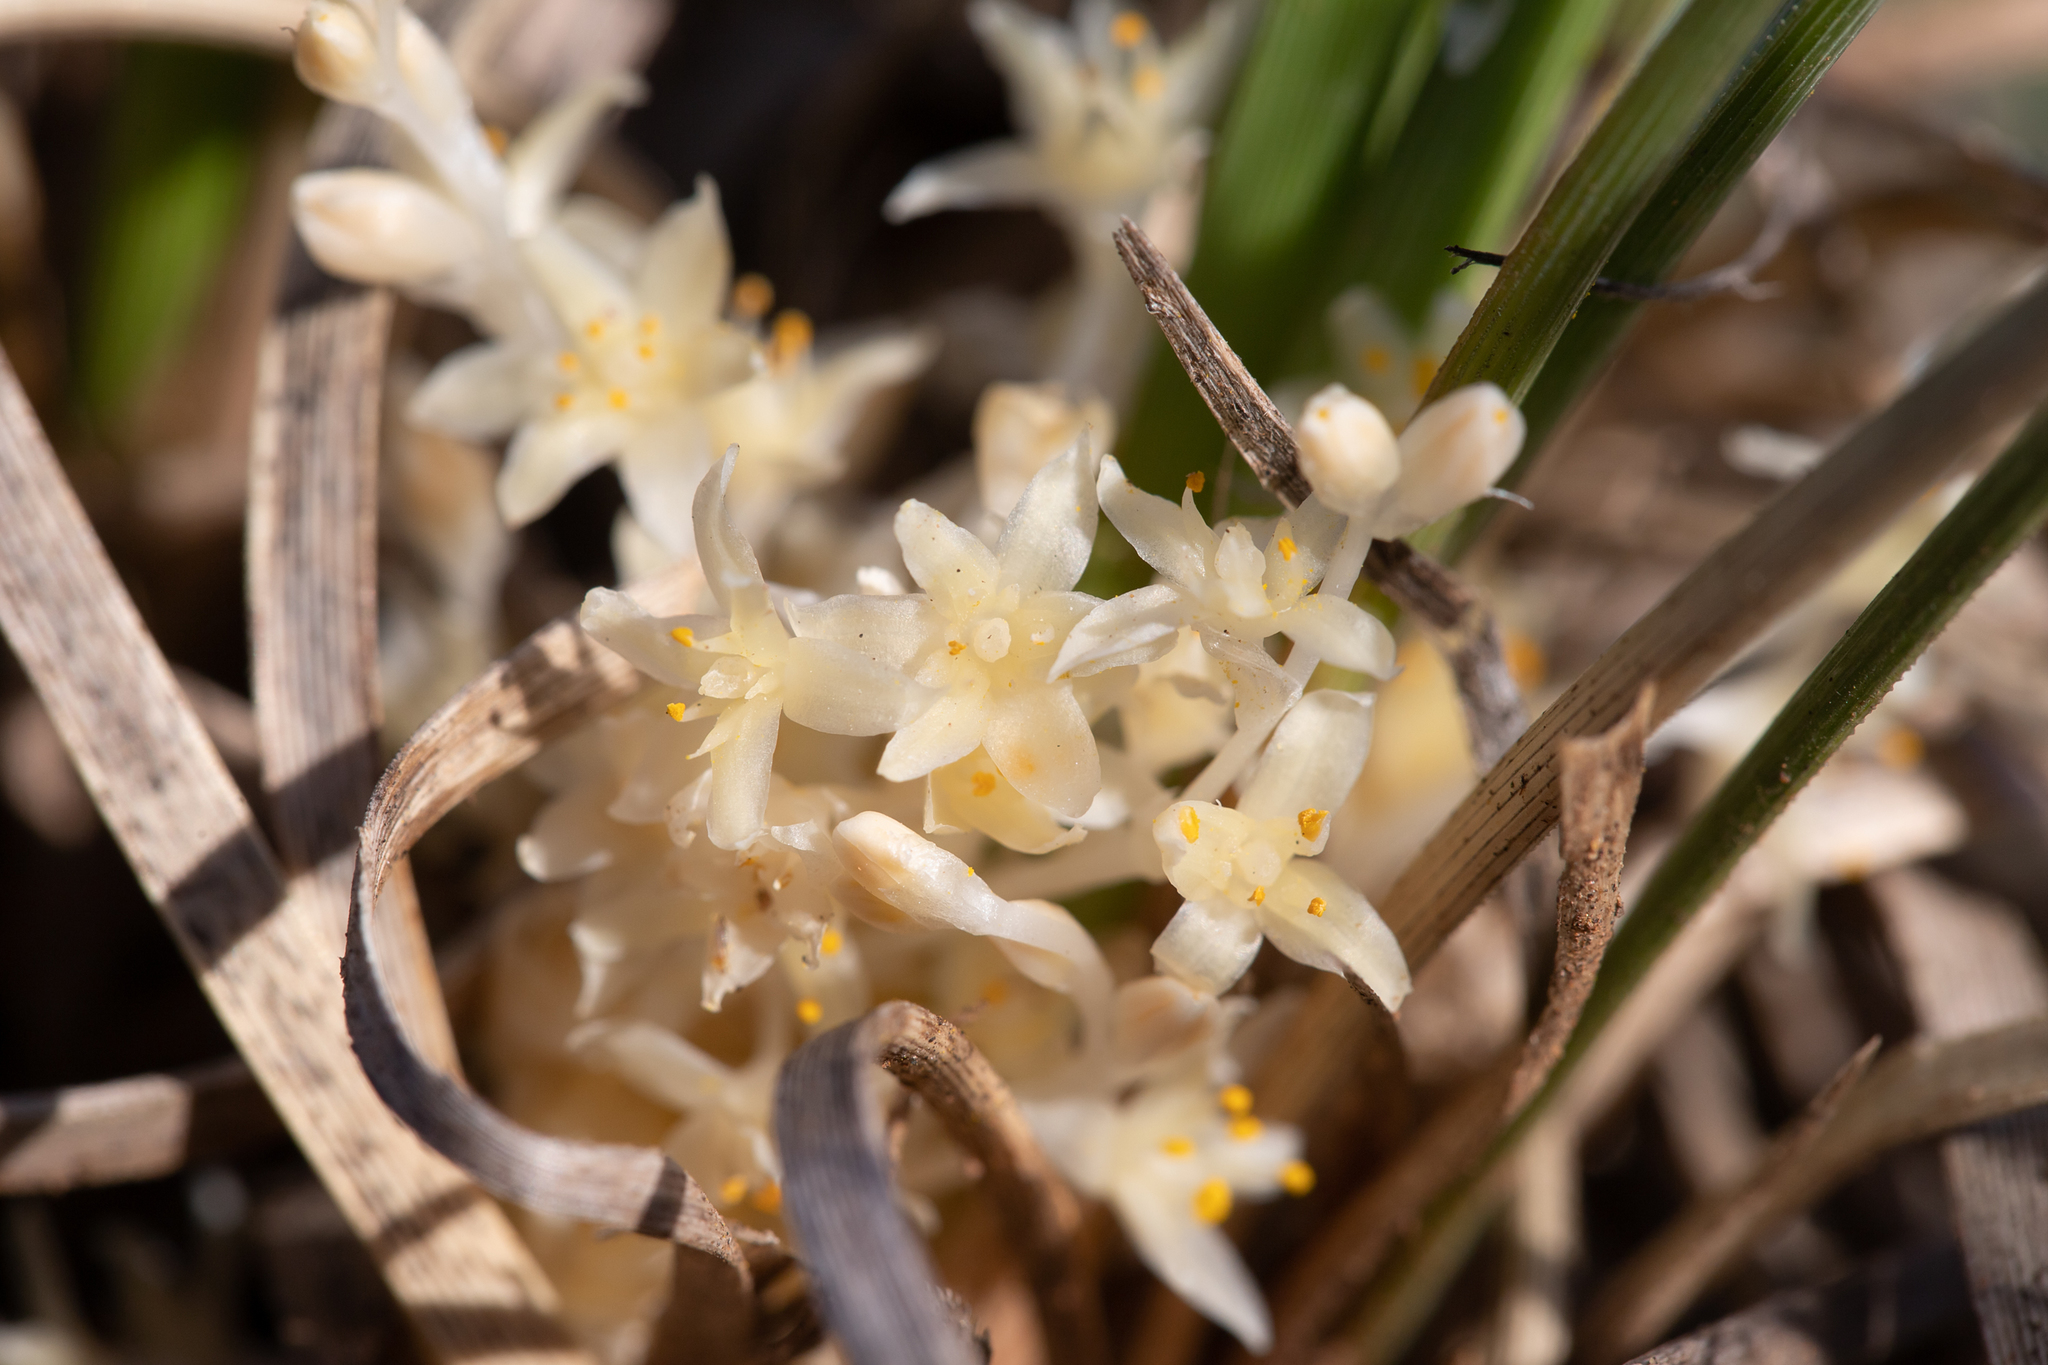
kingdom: Plantae
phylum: Tracheophyta
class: Liliopsida
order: Asparagales
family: Asparagaceae
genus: Lomandra
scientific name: Lomandra effusa
